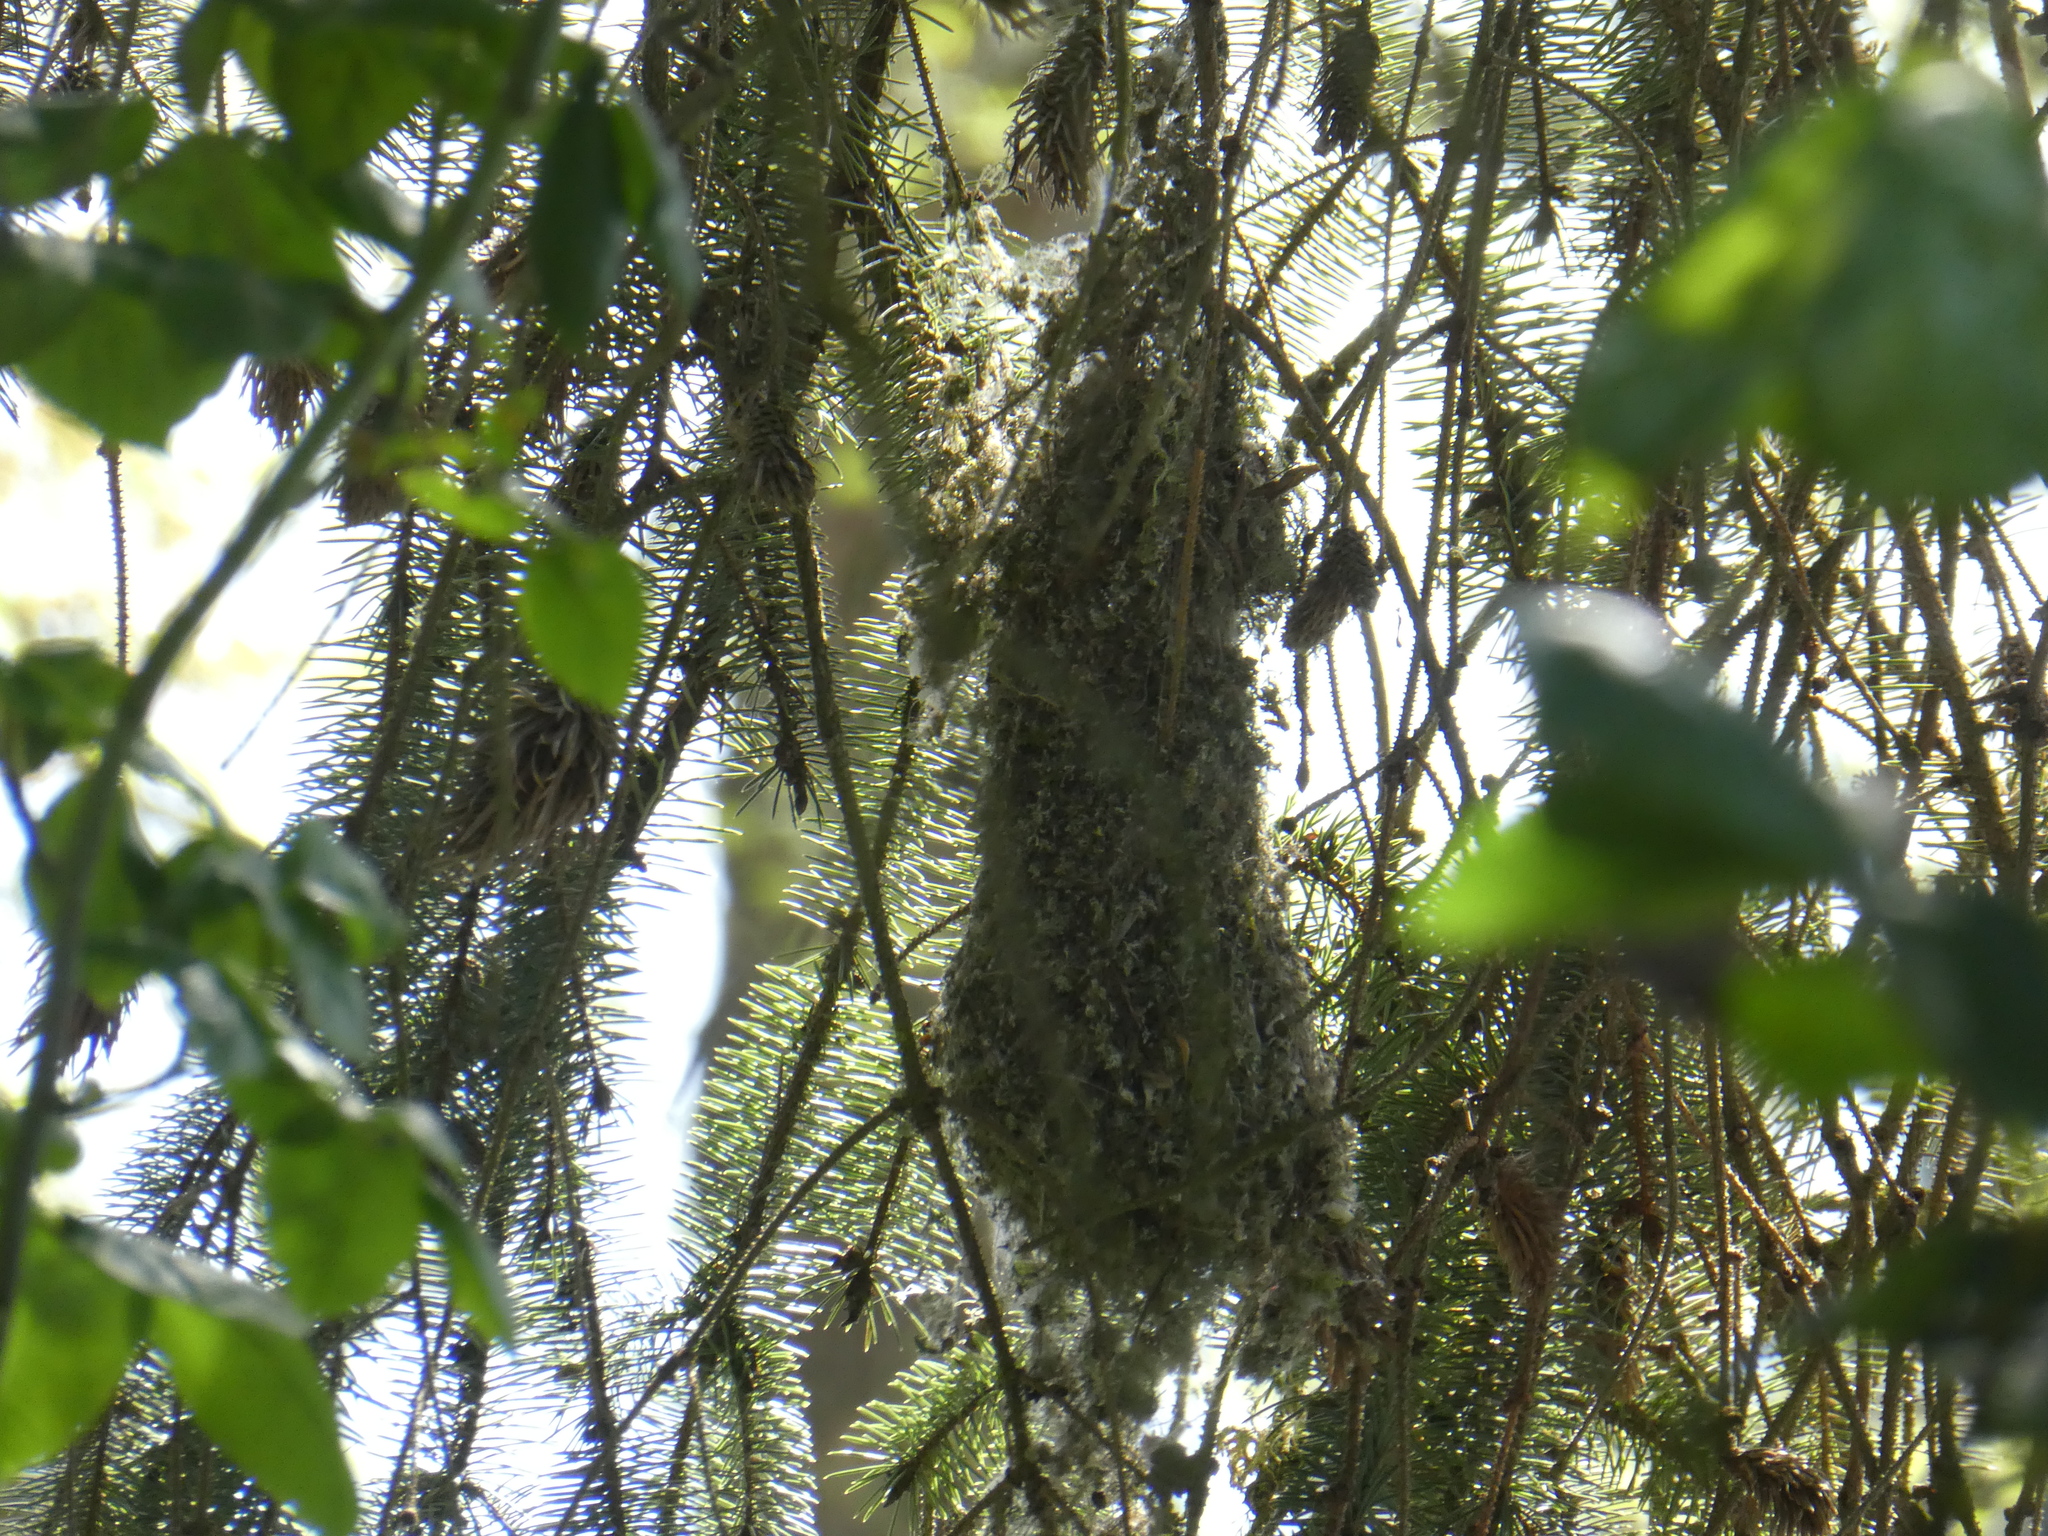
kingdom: Animalia
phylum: Chordata
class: Aves
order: Passeriformes
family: Aegithalidae
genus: Psaltriparus
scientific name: Psaltriparus minimus
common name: American bushtit
